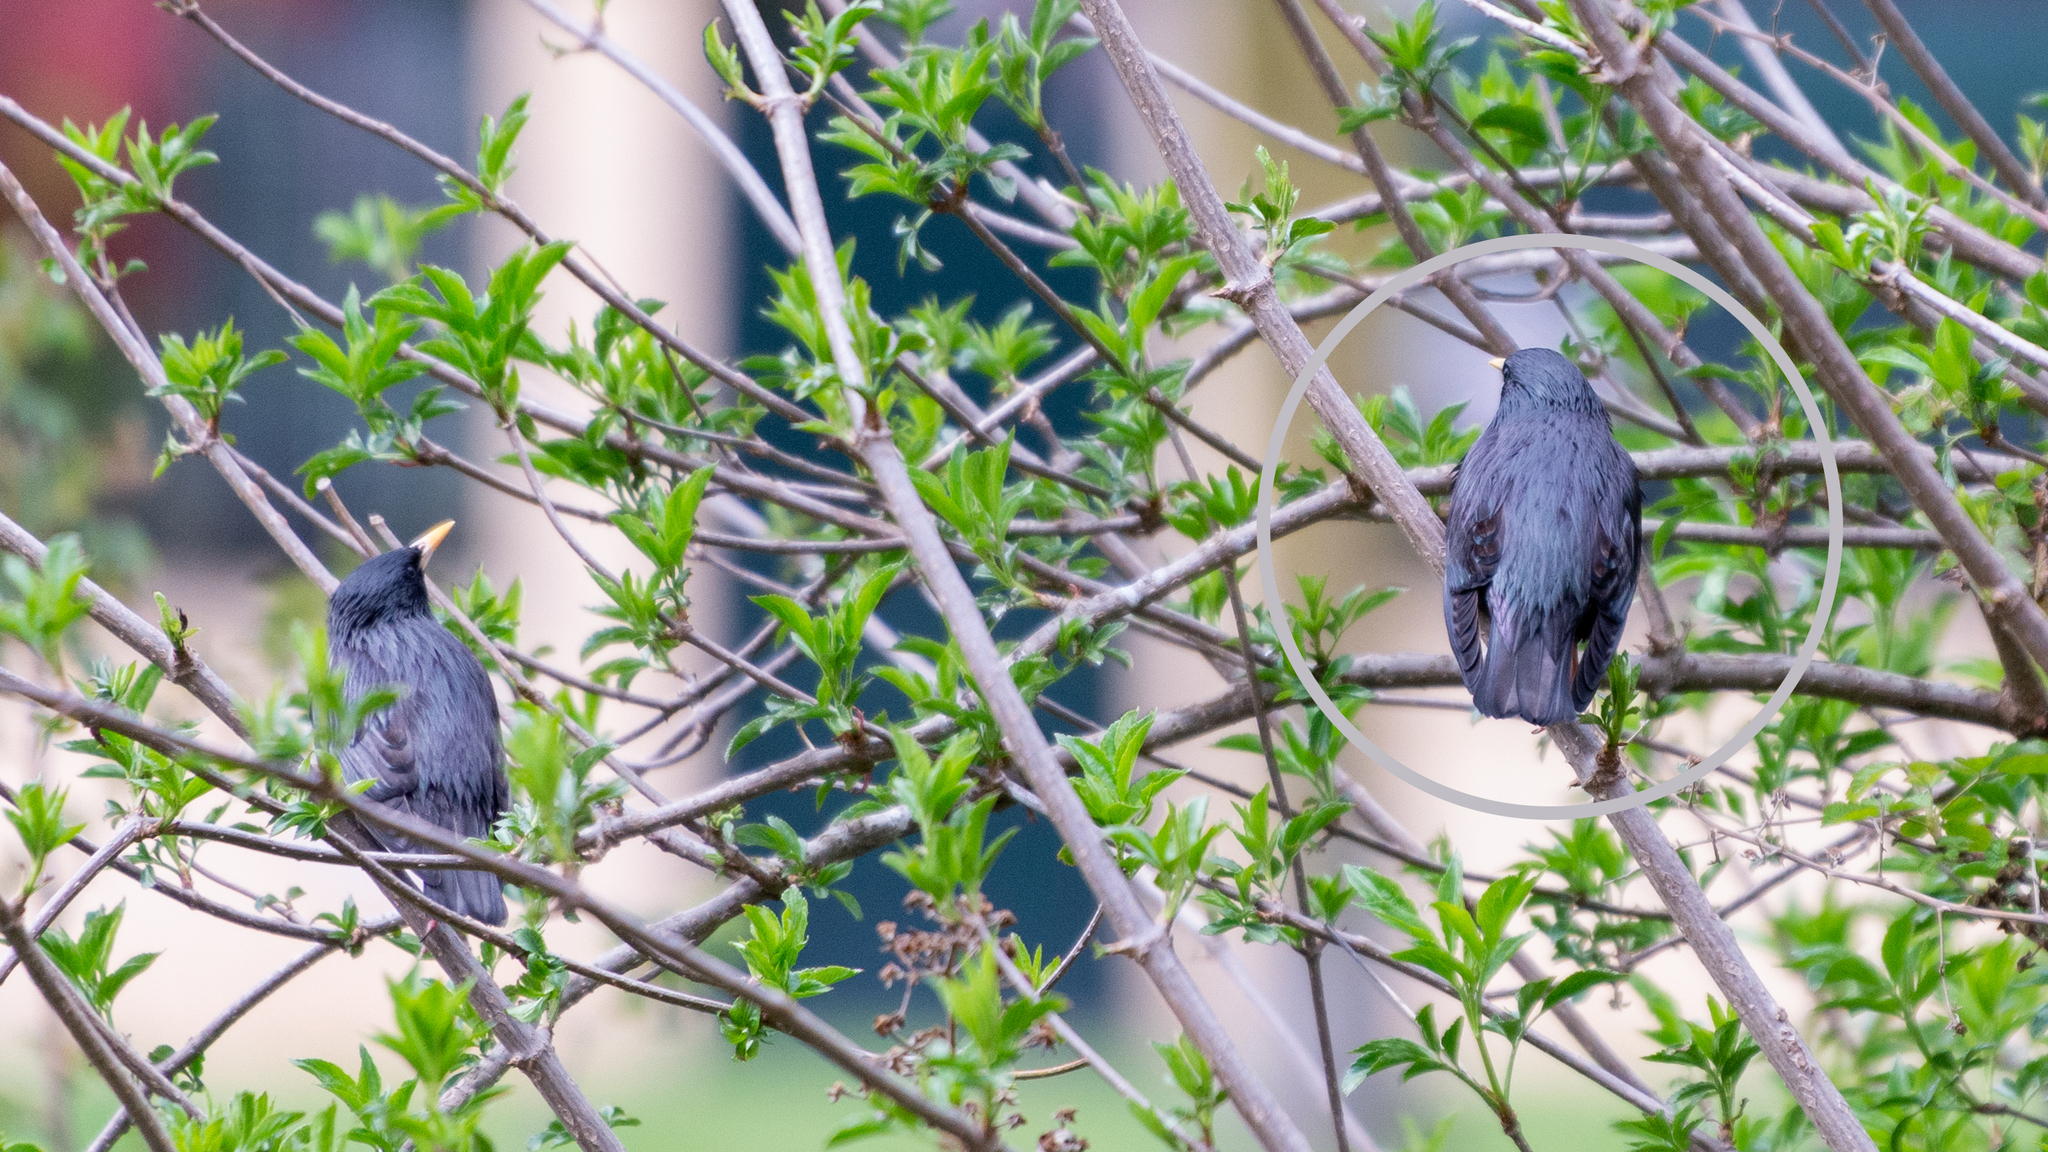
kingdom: Animalia
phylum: Chordata
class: Aves
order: Passeriformes
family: Sturnidae
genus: Sturnus
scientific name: Sturnus unicolor
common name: Spotless starling
